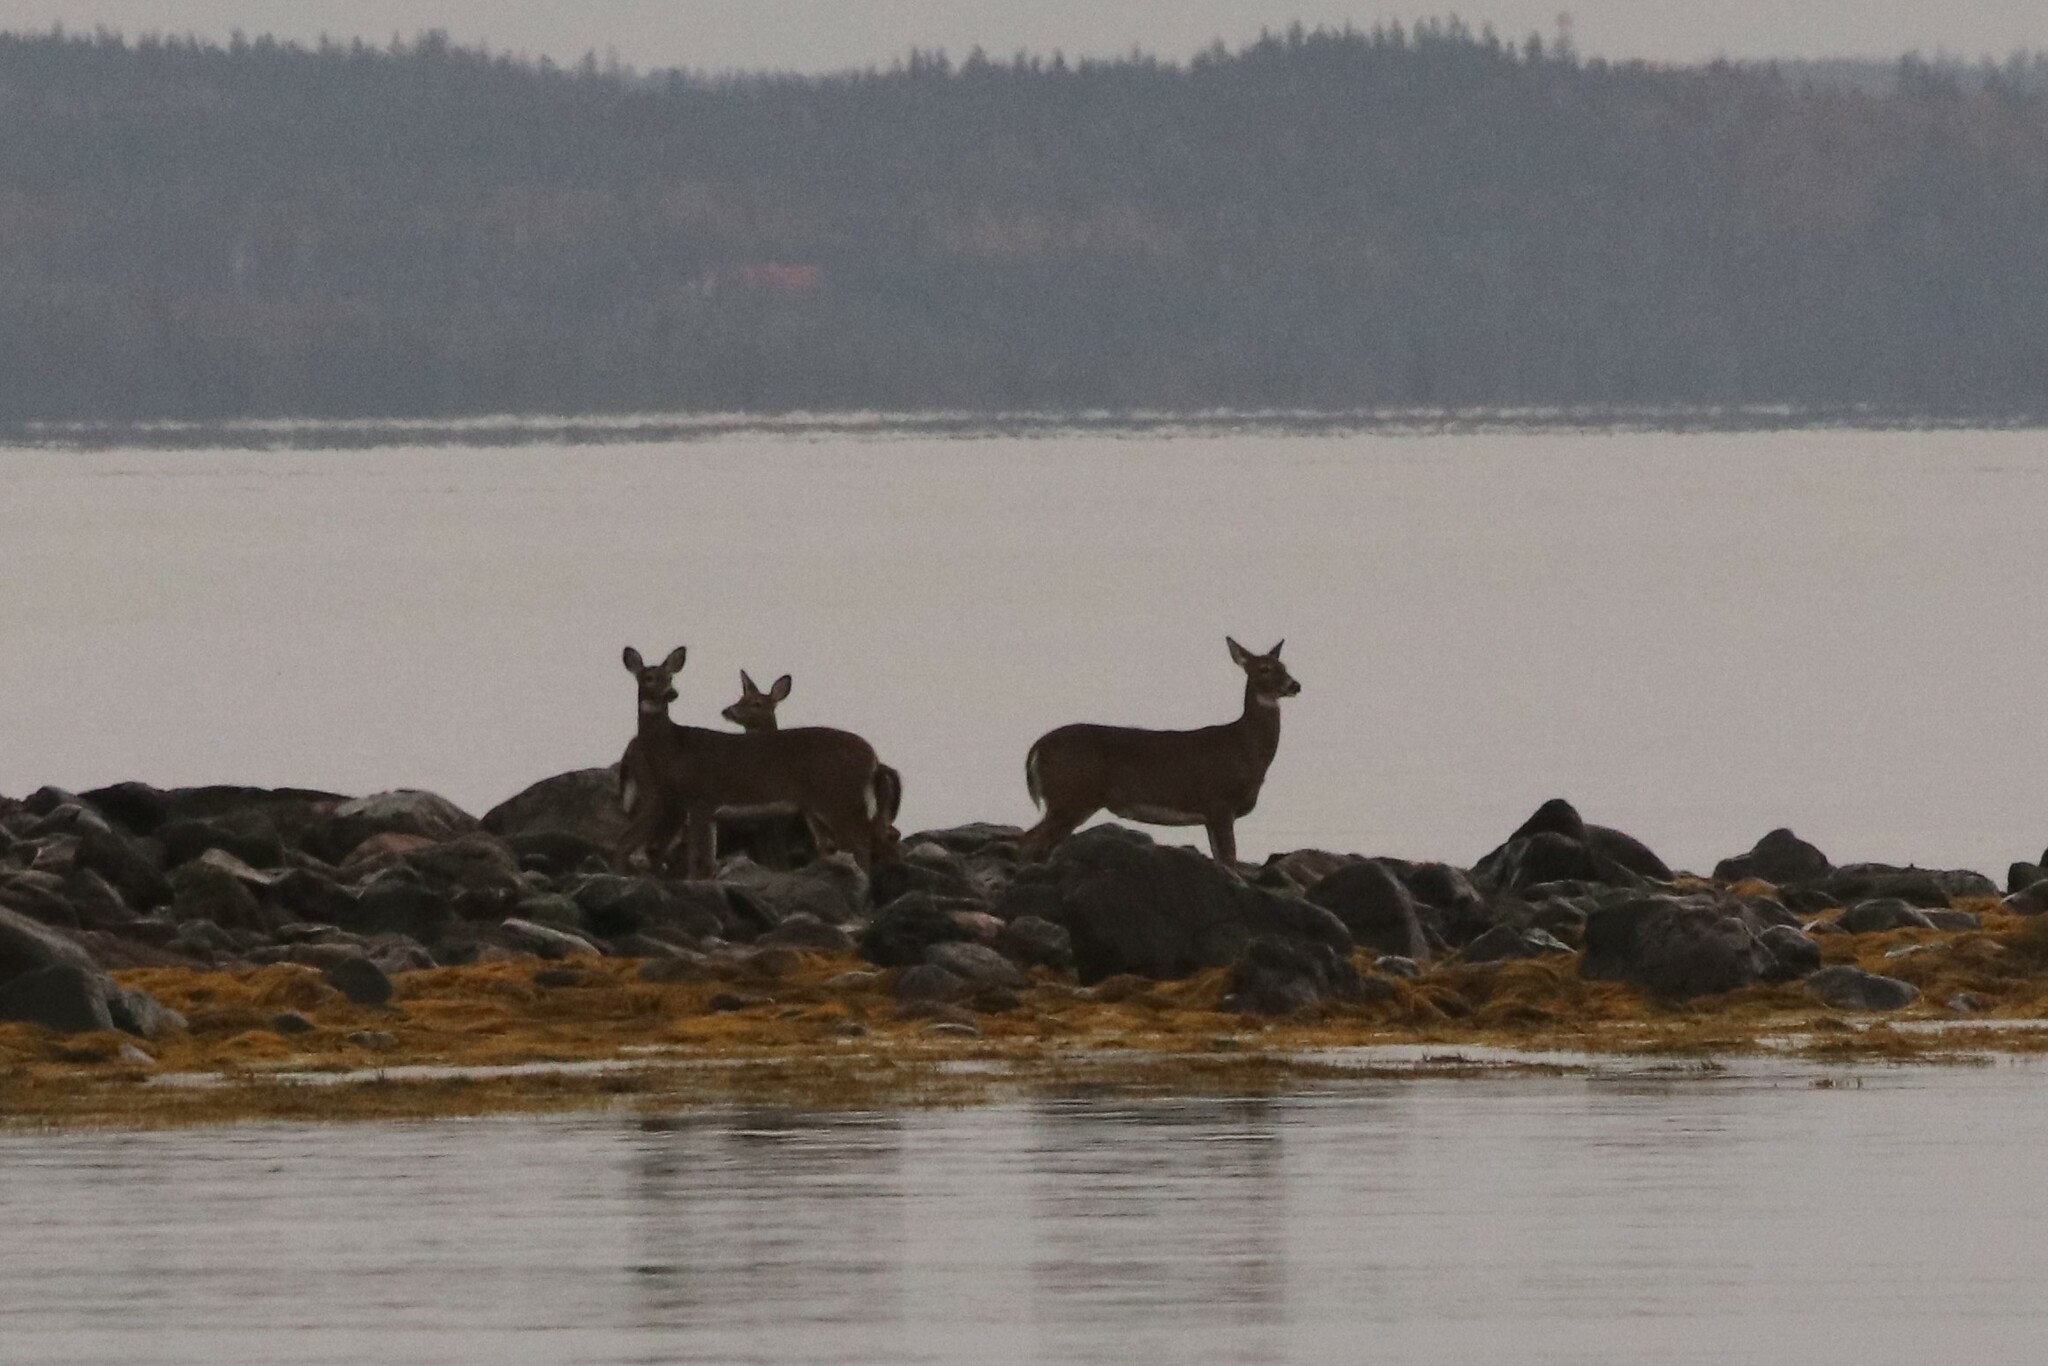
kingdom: Animalia
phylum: Chordata
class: Mammalia
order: Artiodactyla
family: Cervidae
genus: Odocoileus
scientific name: Odocoileus virginianus
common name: White-tailed deer
